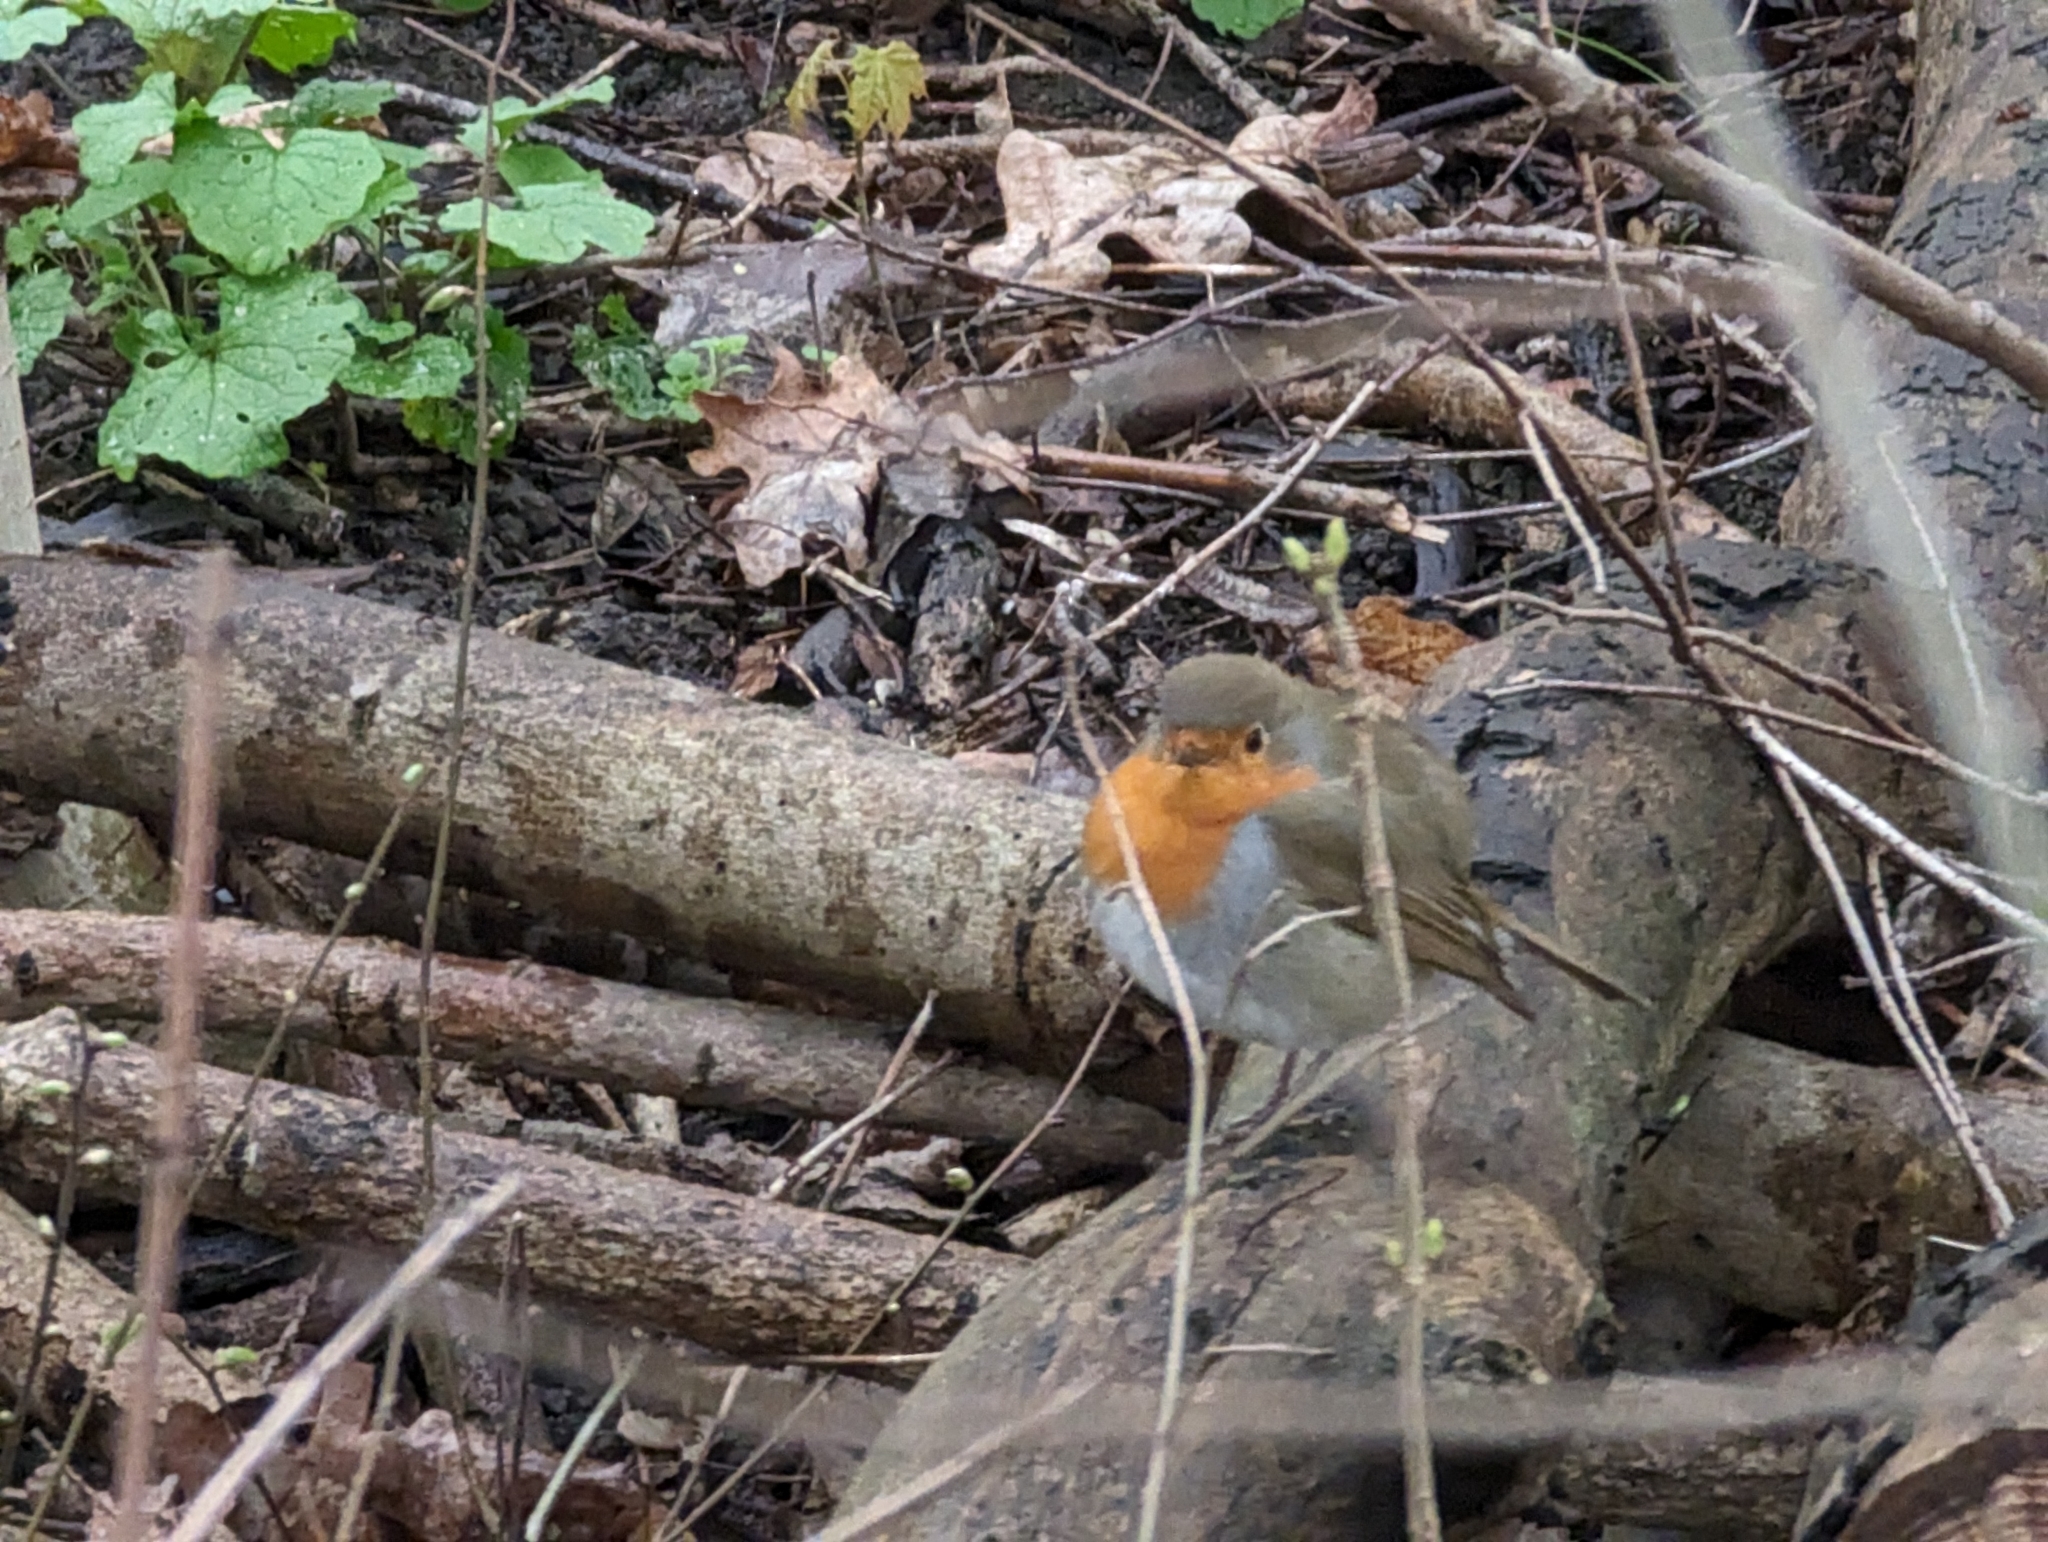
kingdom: Animalia
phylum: Chordata
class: Aves
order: Passeriformes
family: Muscicapidae
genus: Erithacus
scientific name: Erithacus rubecula
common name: European robin
